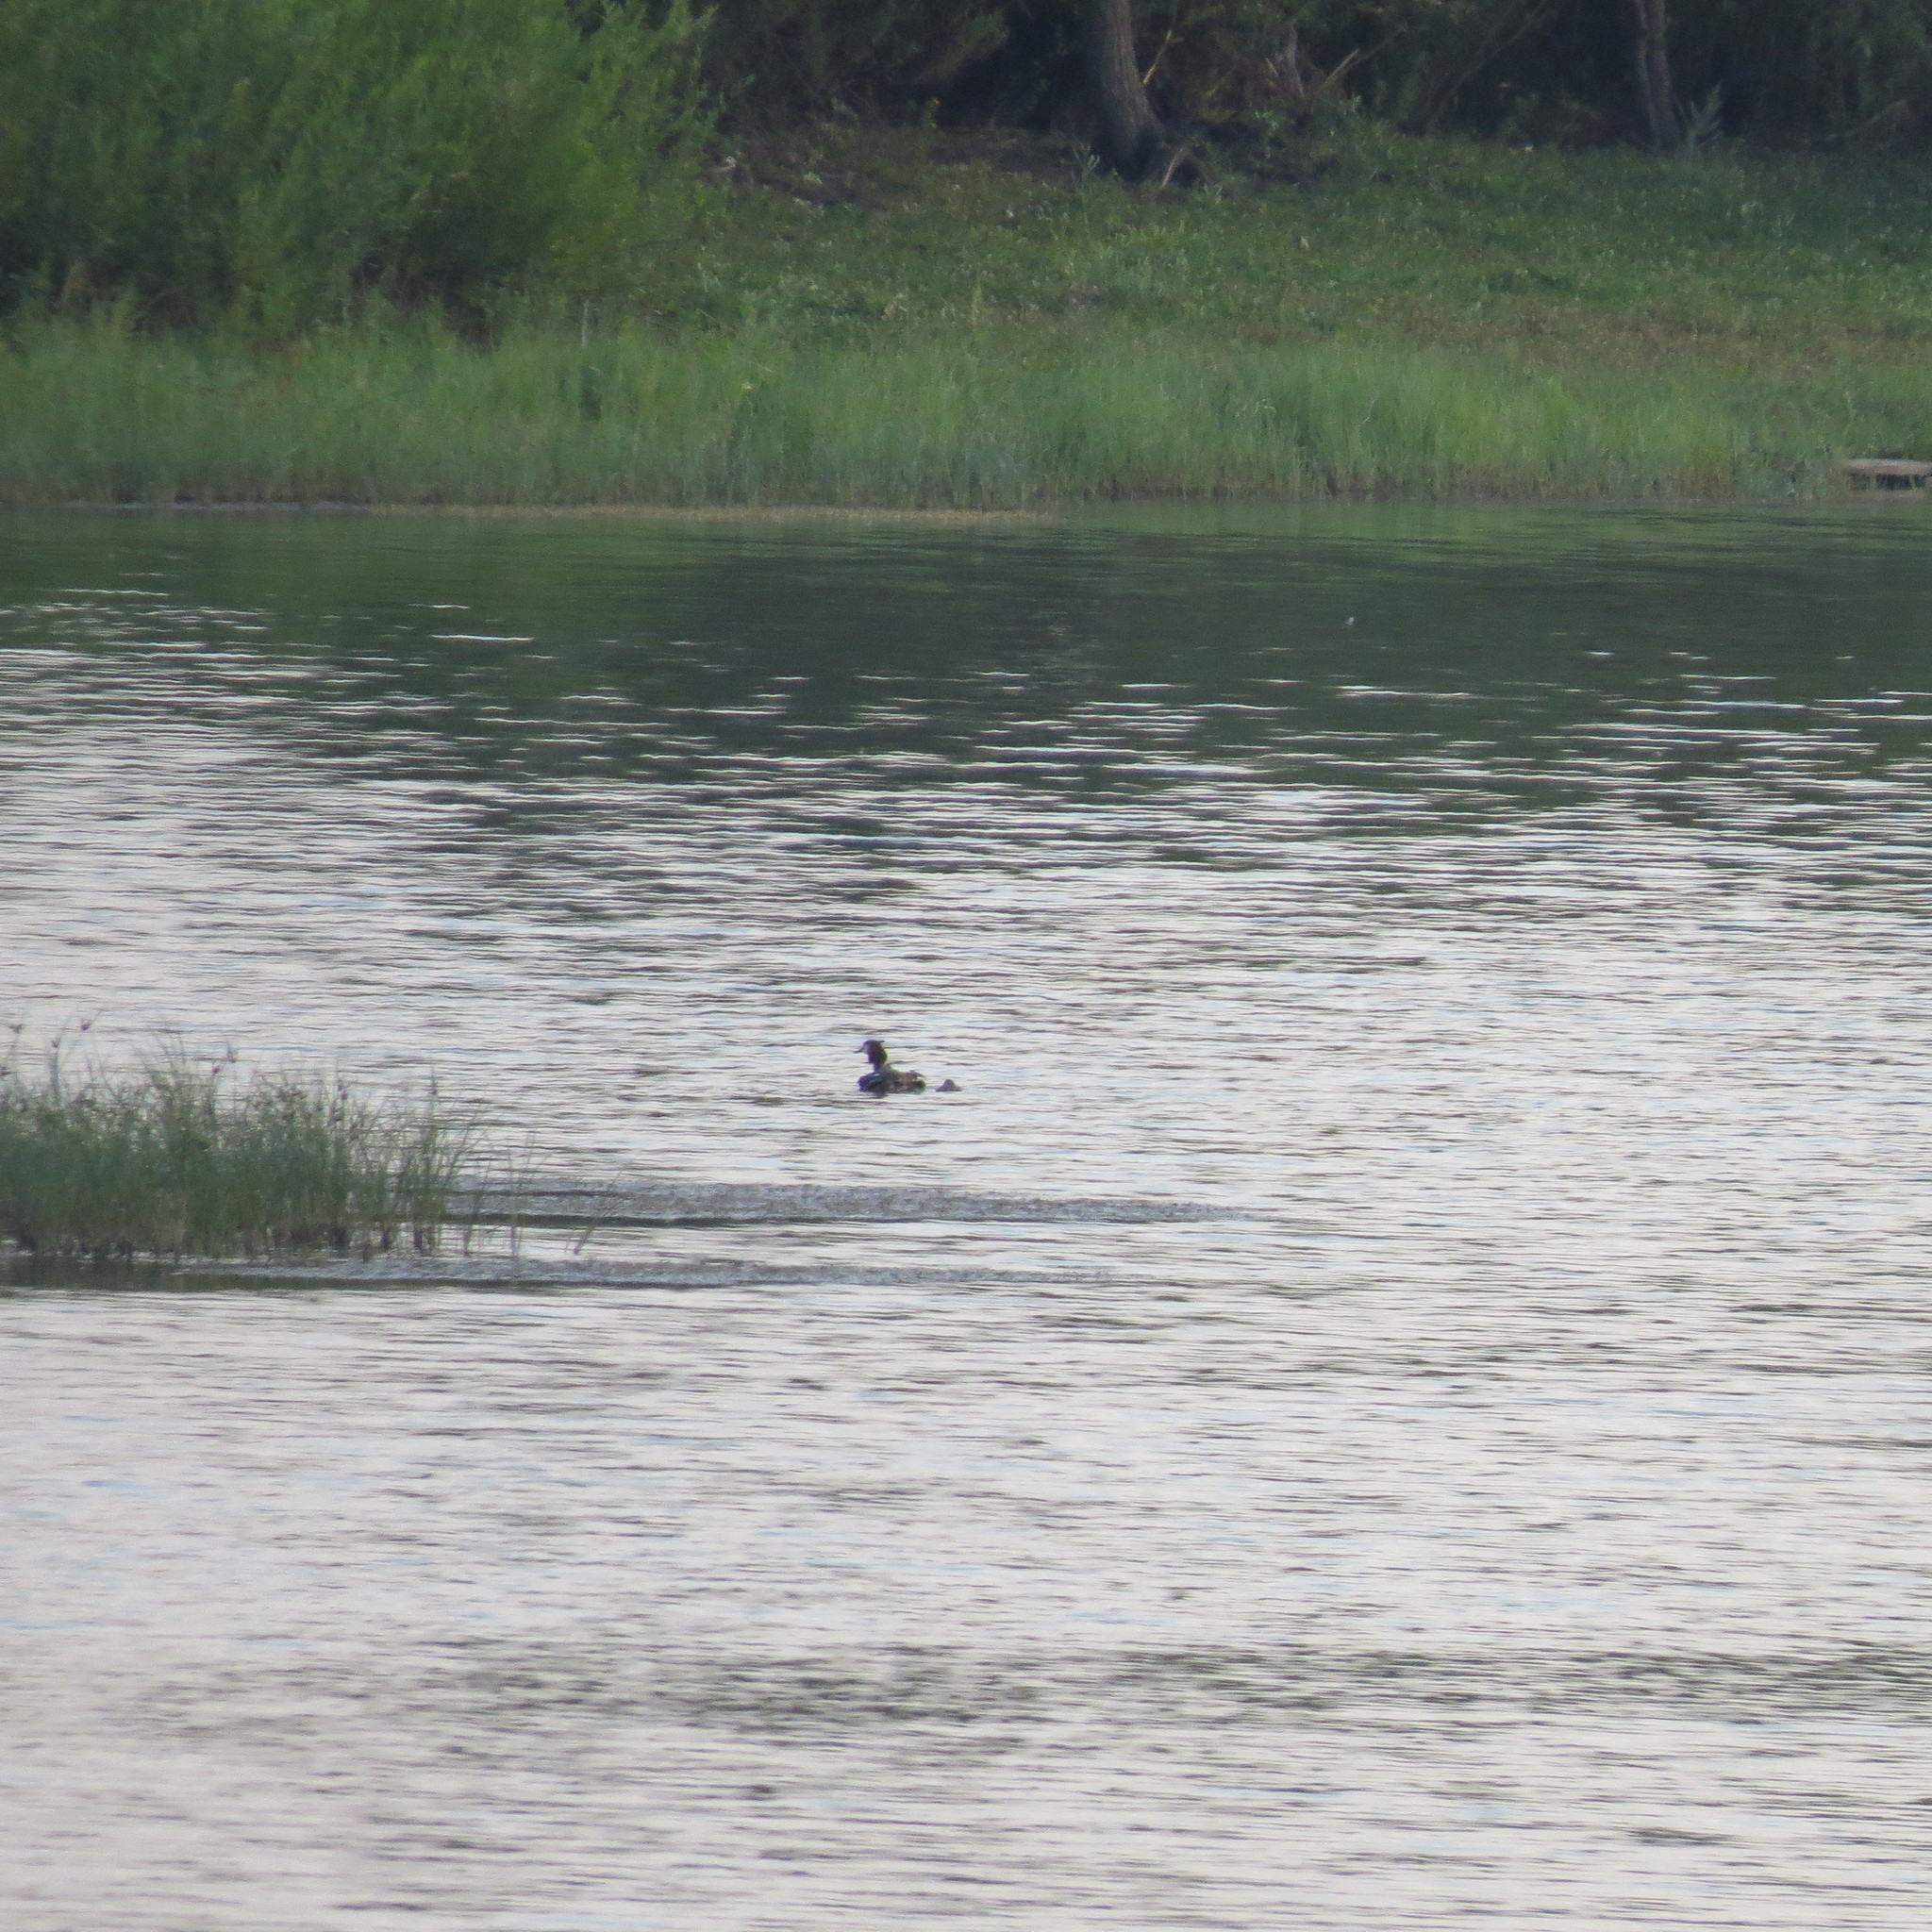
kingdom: Animalia
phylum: Chordata
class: Aves
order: Podicipediformes
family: Podicipedidae
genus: Podiceps
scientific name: Podiceps cristatus
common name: Great crested grebe
